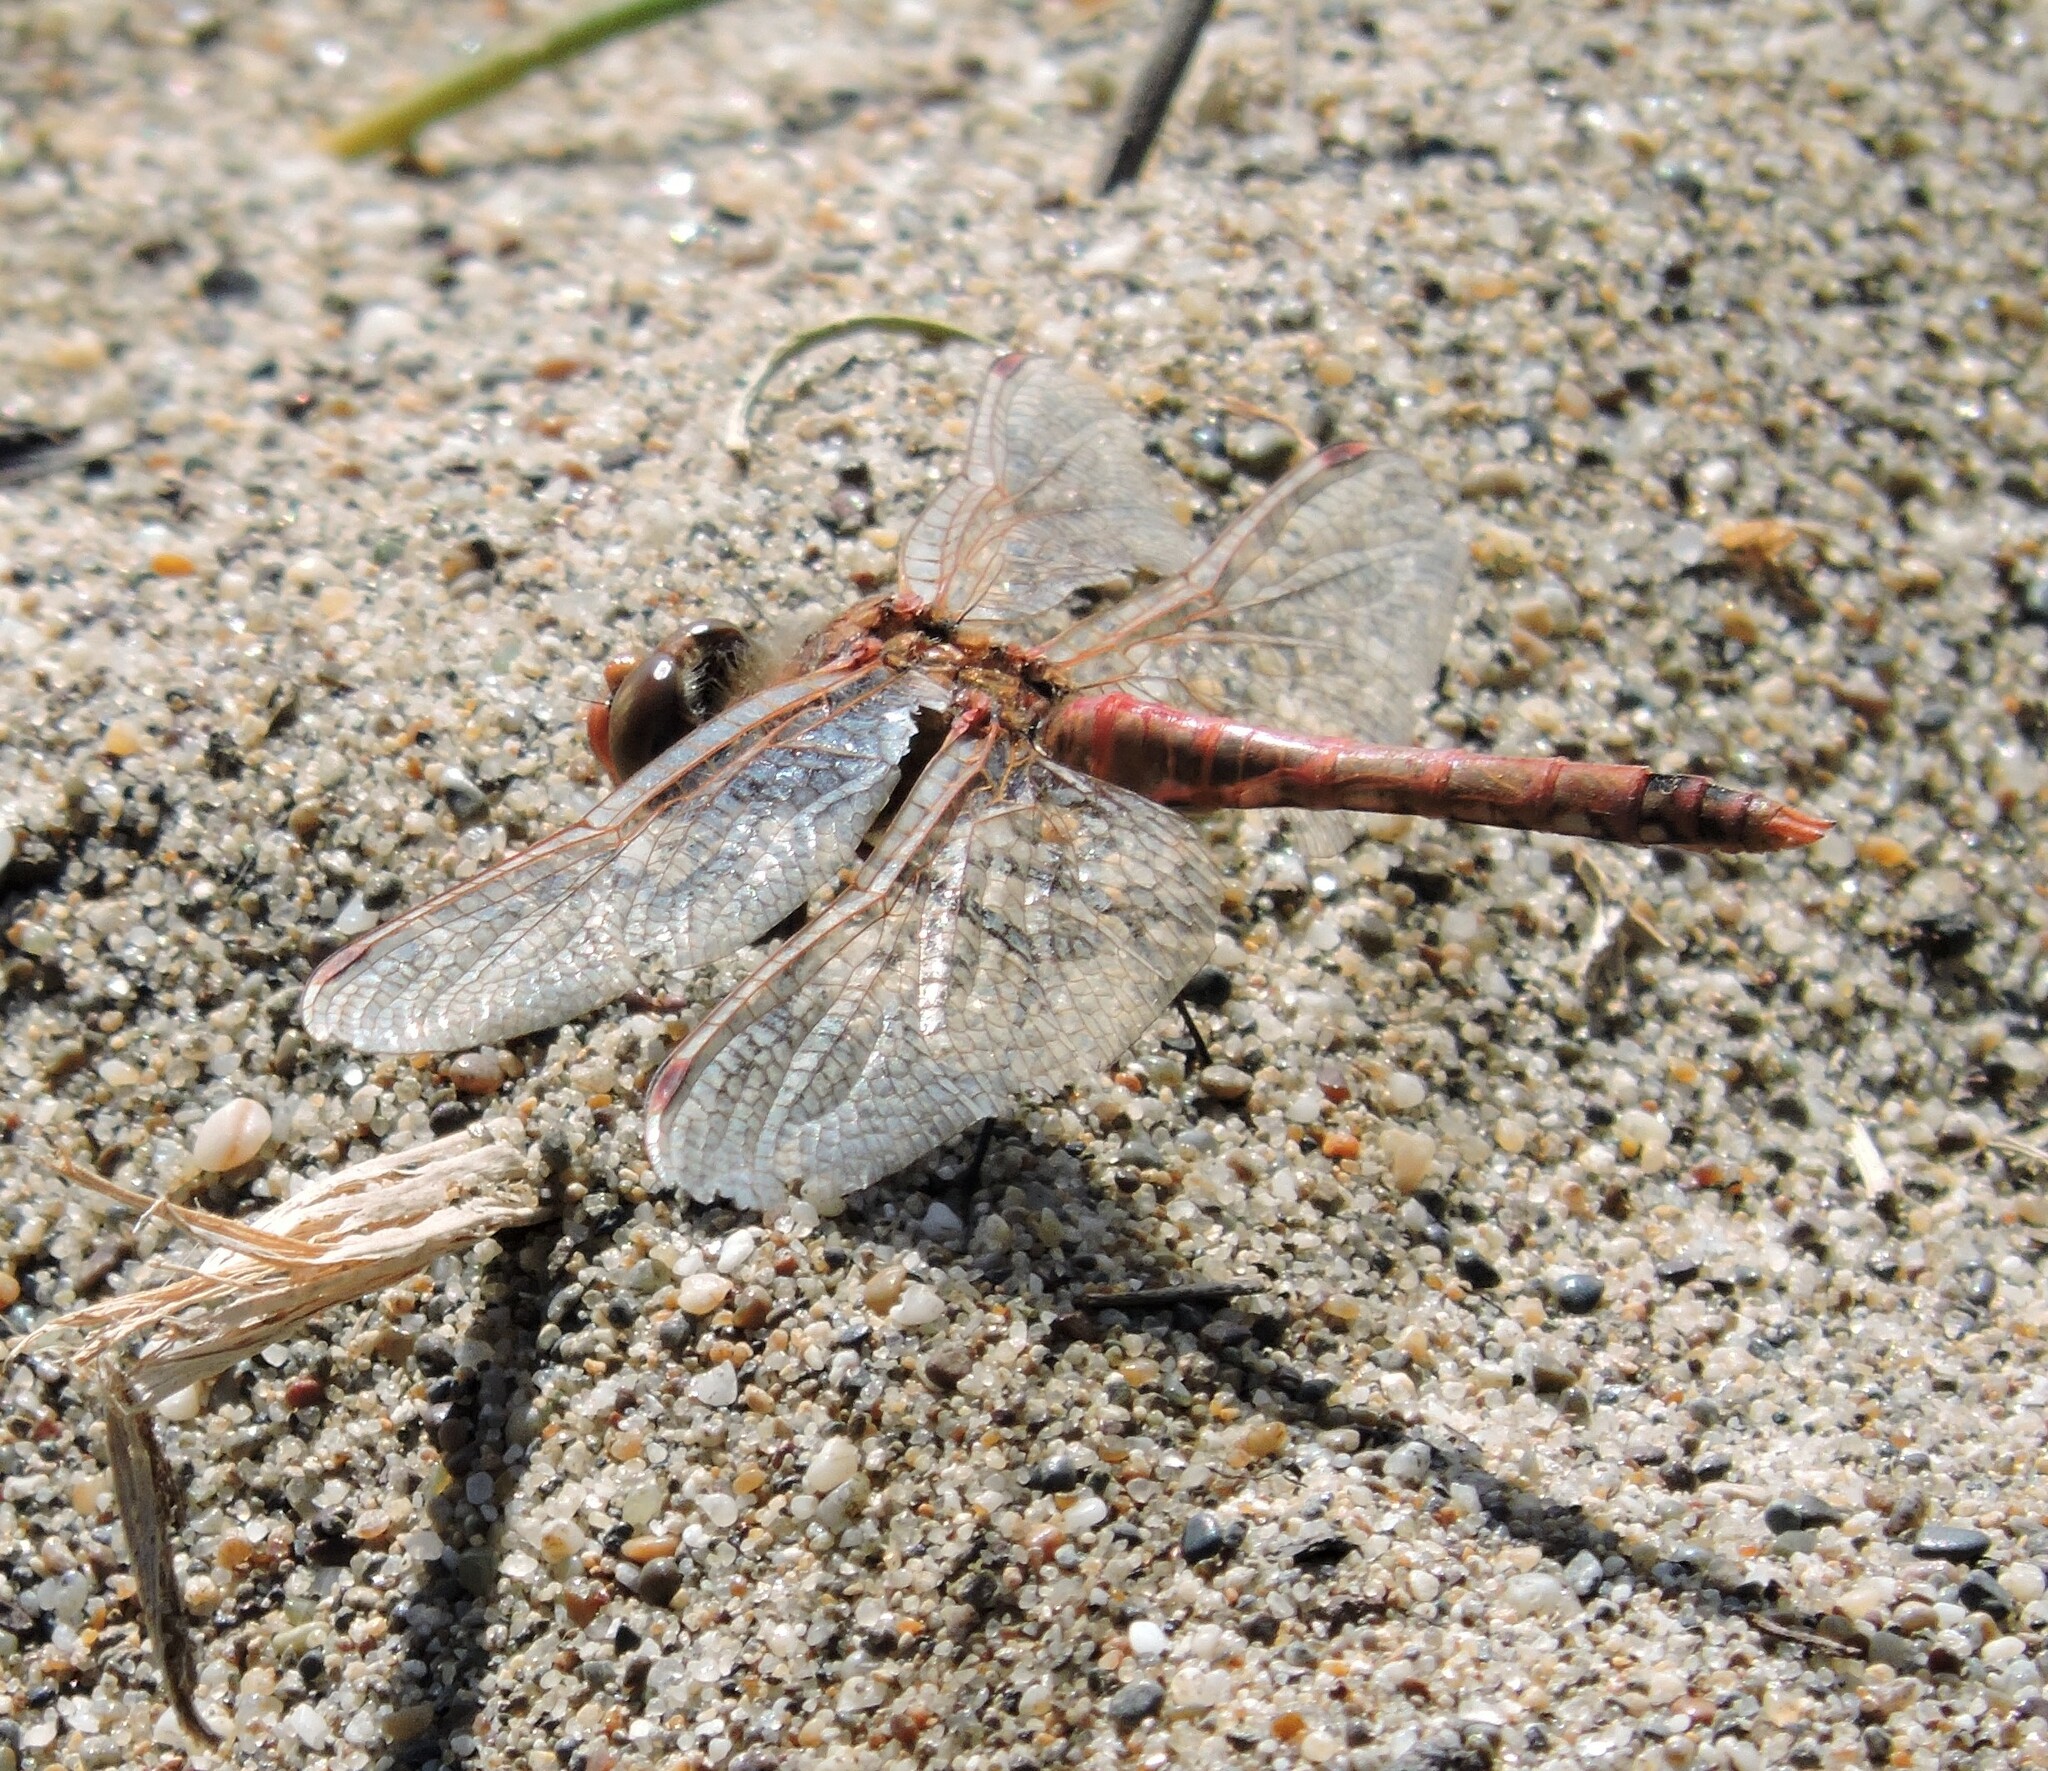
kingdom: Animalia
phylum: Arthropoda
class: Insecta
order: Odonata
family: Libellulidae
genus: Sympetrum
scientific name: Sympetrum corruptum
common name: Variegated meadowhawk
